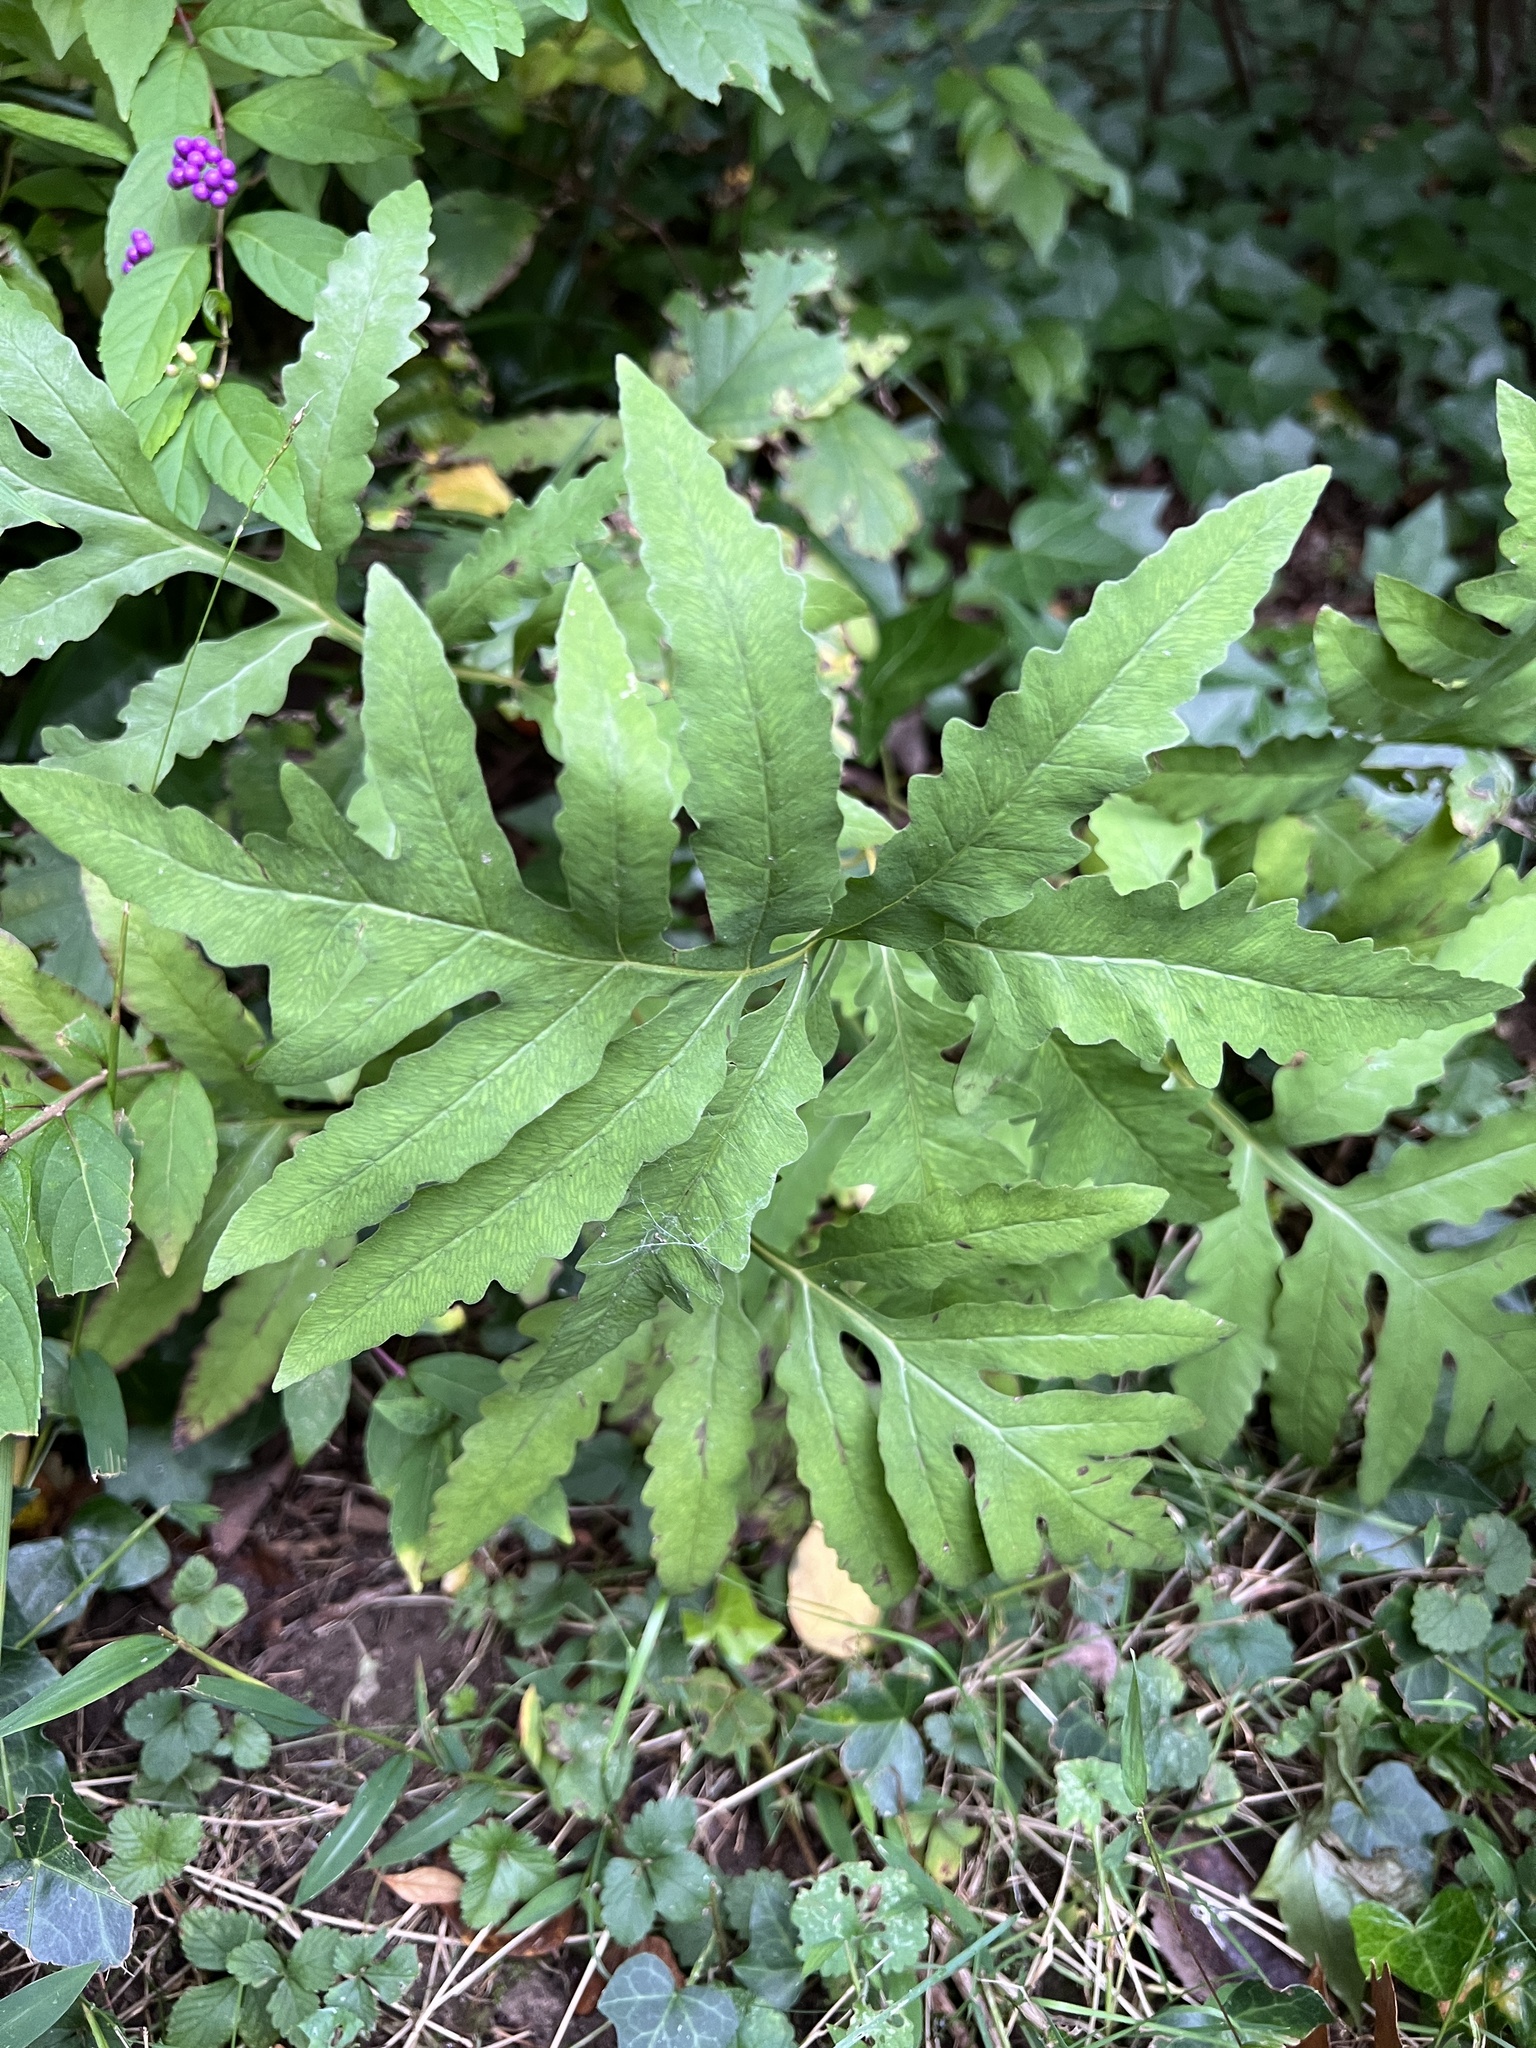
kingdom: Plantae
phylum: Tracheophyta
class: Polypodiopsida
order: Polypodiales
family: Onocleaceae
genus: Onoclea
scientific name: Onoclea sensibilis
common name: Sensitive fern
